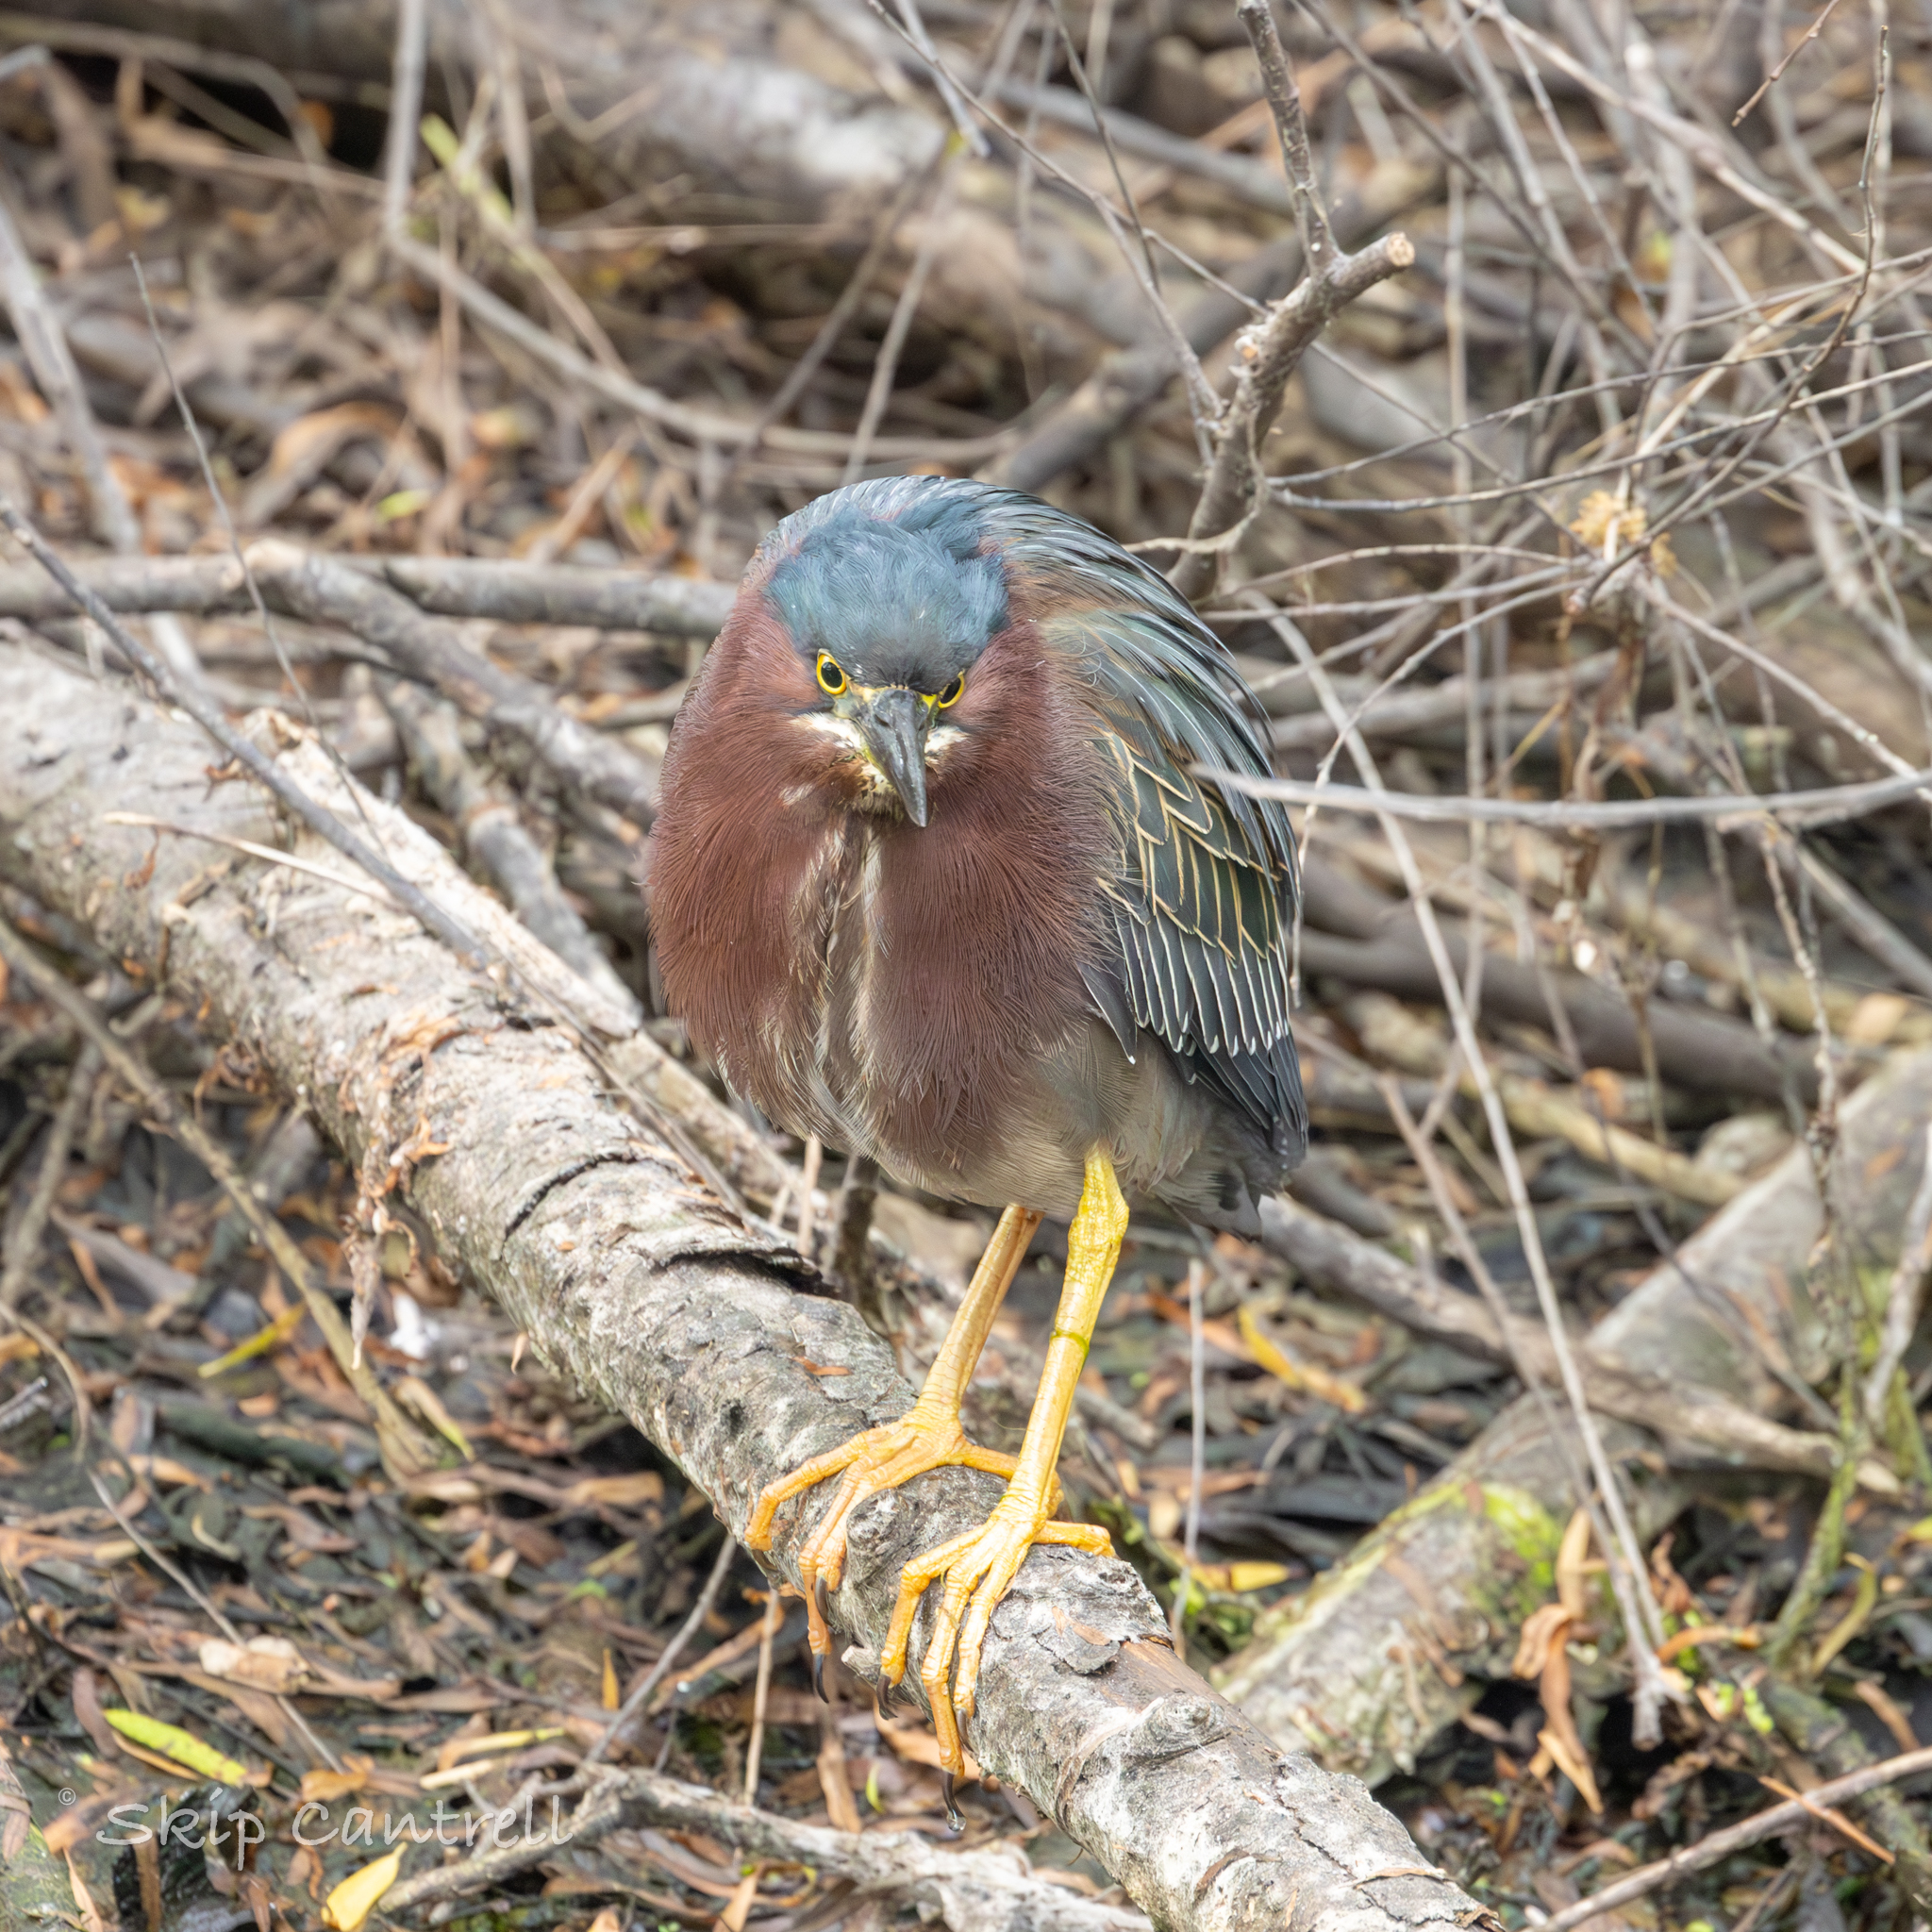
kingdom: Animalia
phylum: Chordata
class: Aves
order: Pelecaniformes
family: Ardeidae
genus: Butorides
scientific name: Butorides virescens
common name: Green heron
